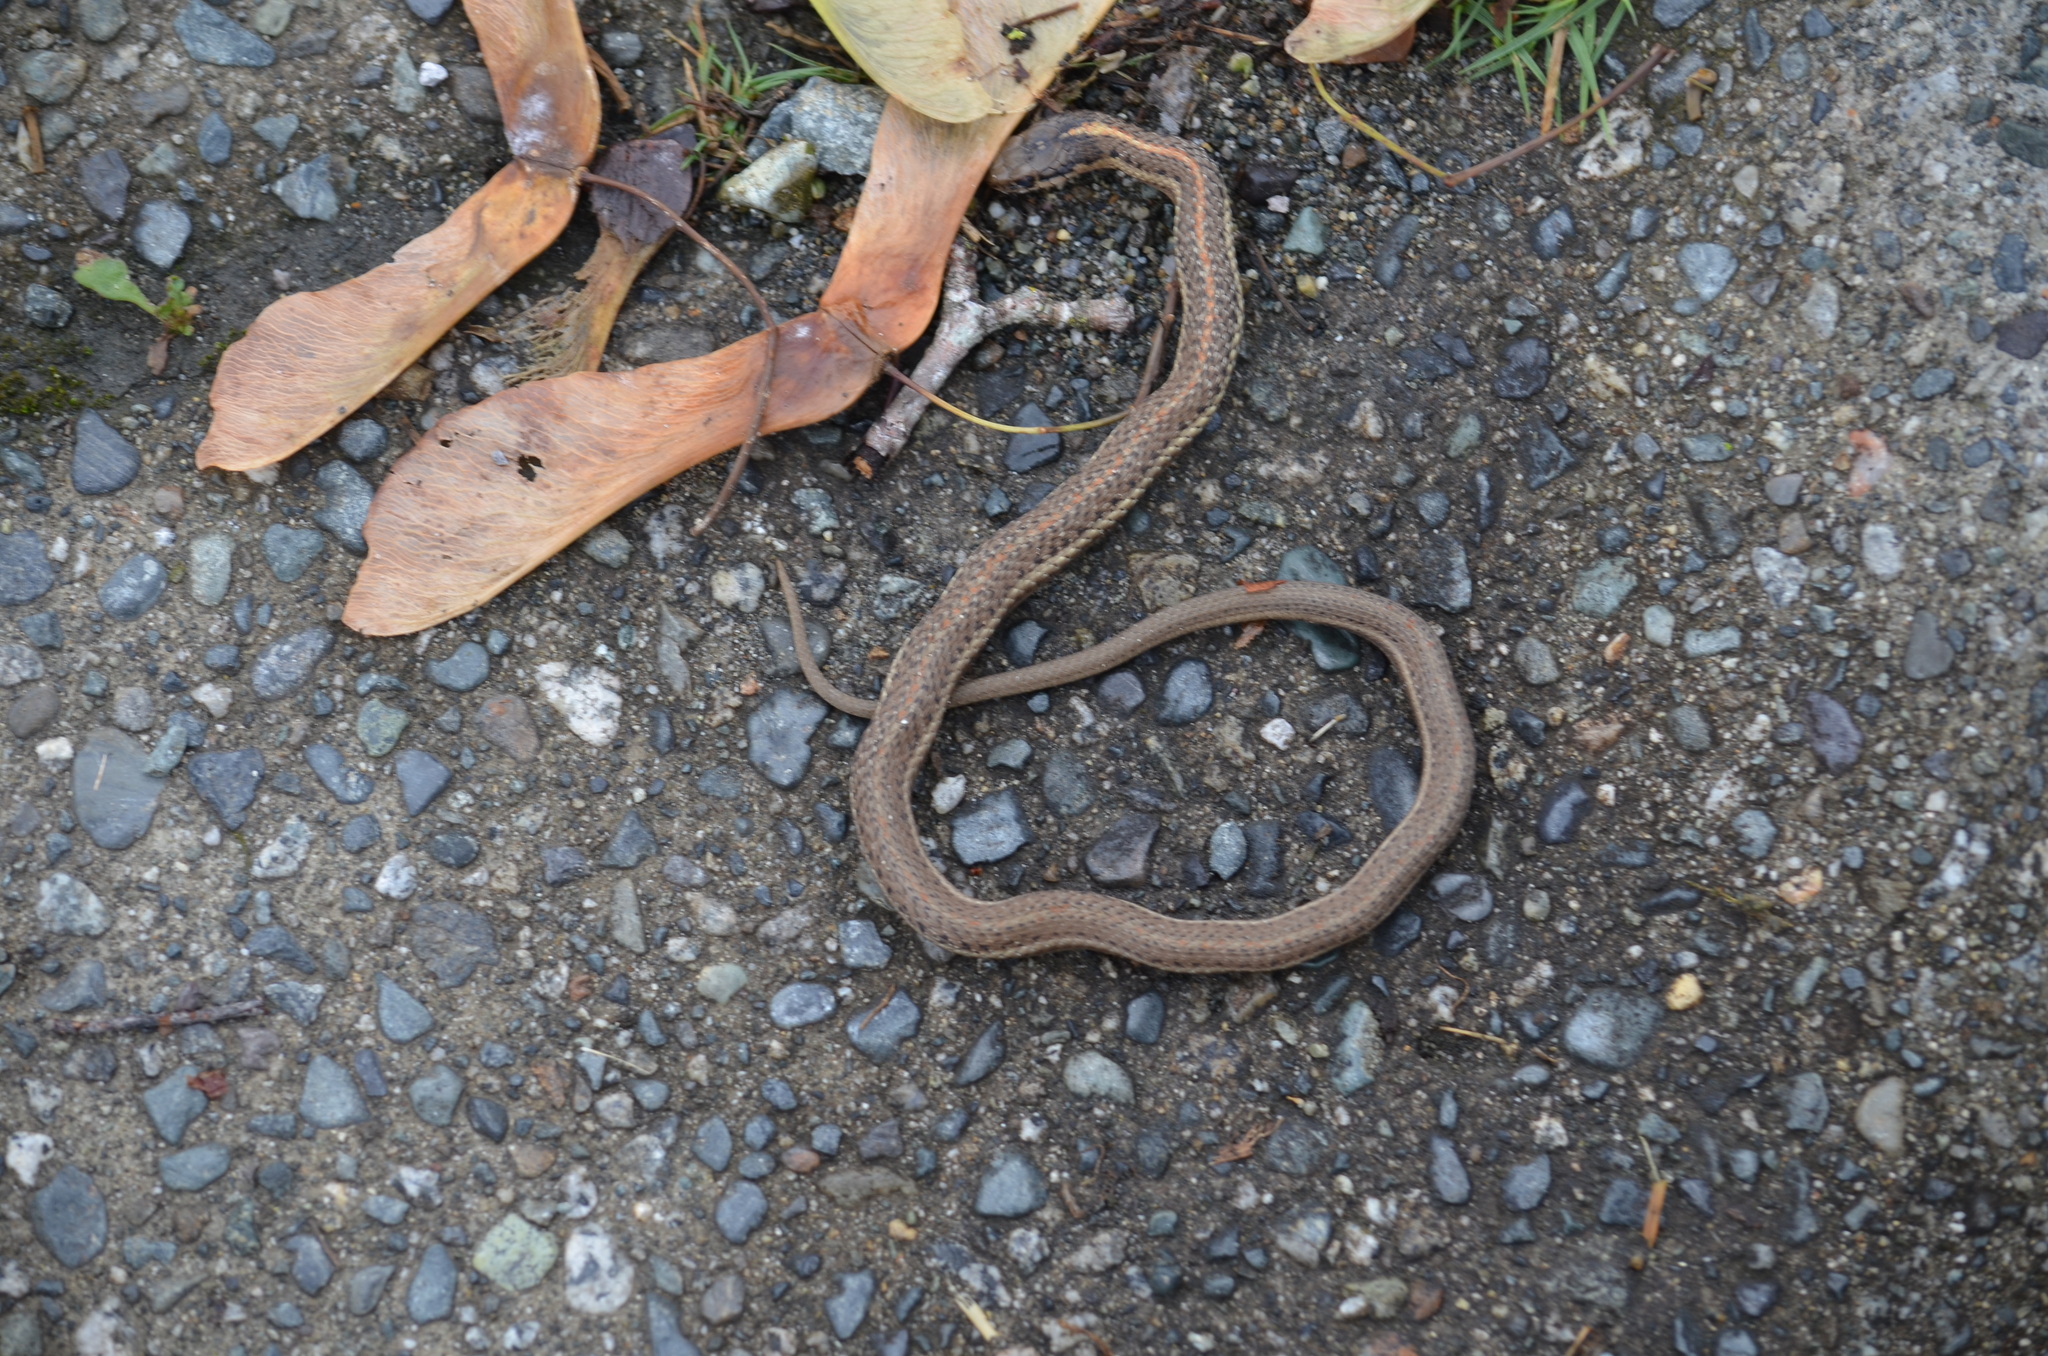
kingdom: Animalia
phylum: Chordata
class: Squamata
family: Colubridae
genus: Thamnophis
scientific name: Thamnophis ordinoides
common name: Northwestern garter snake
